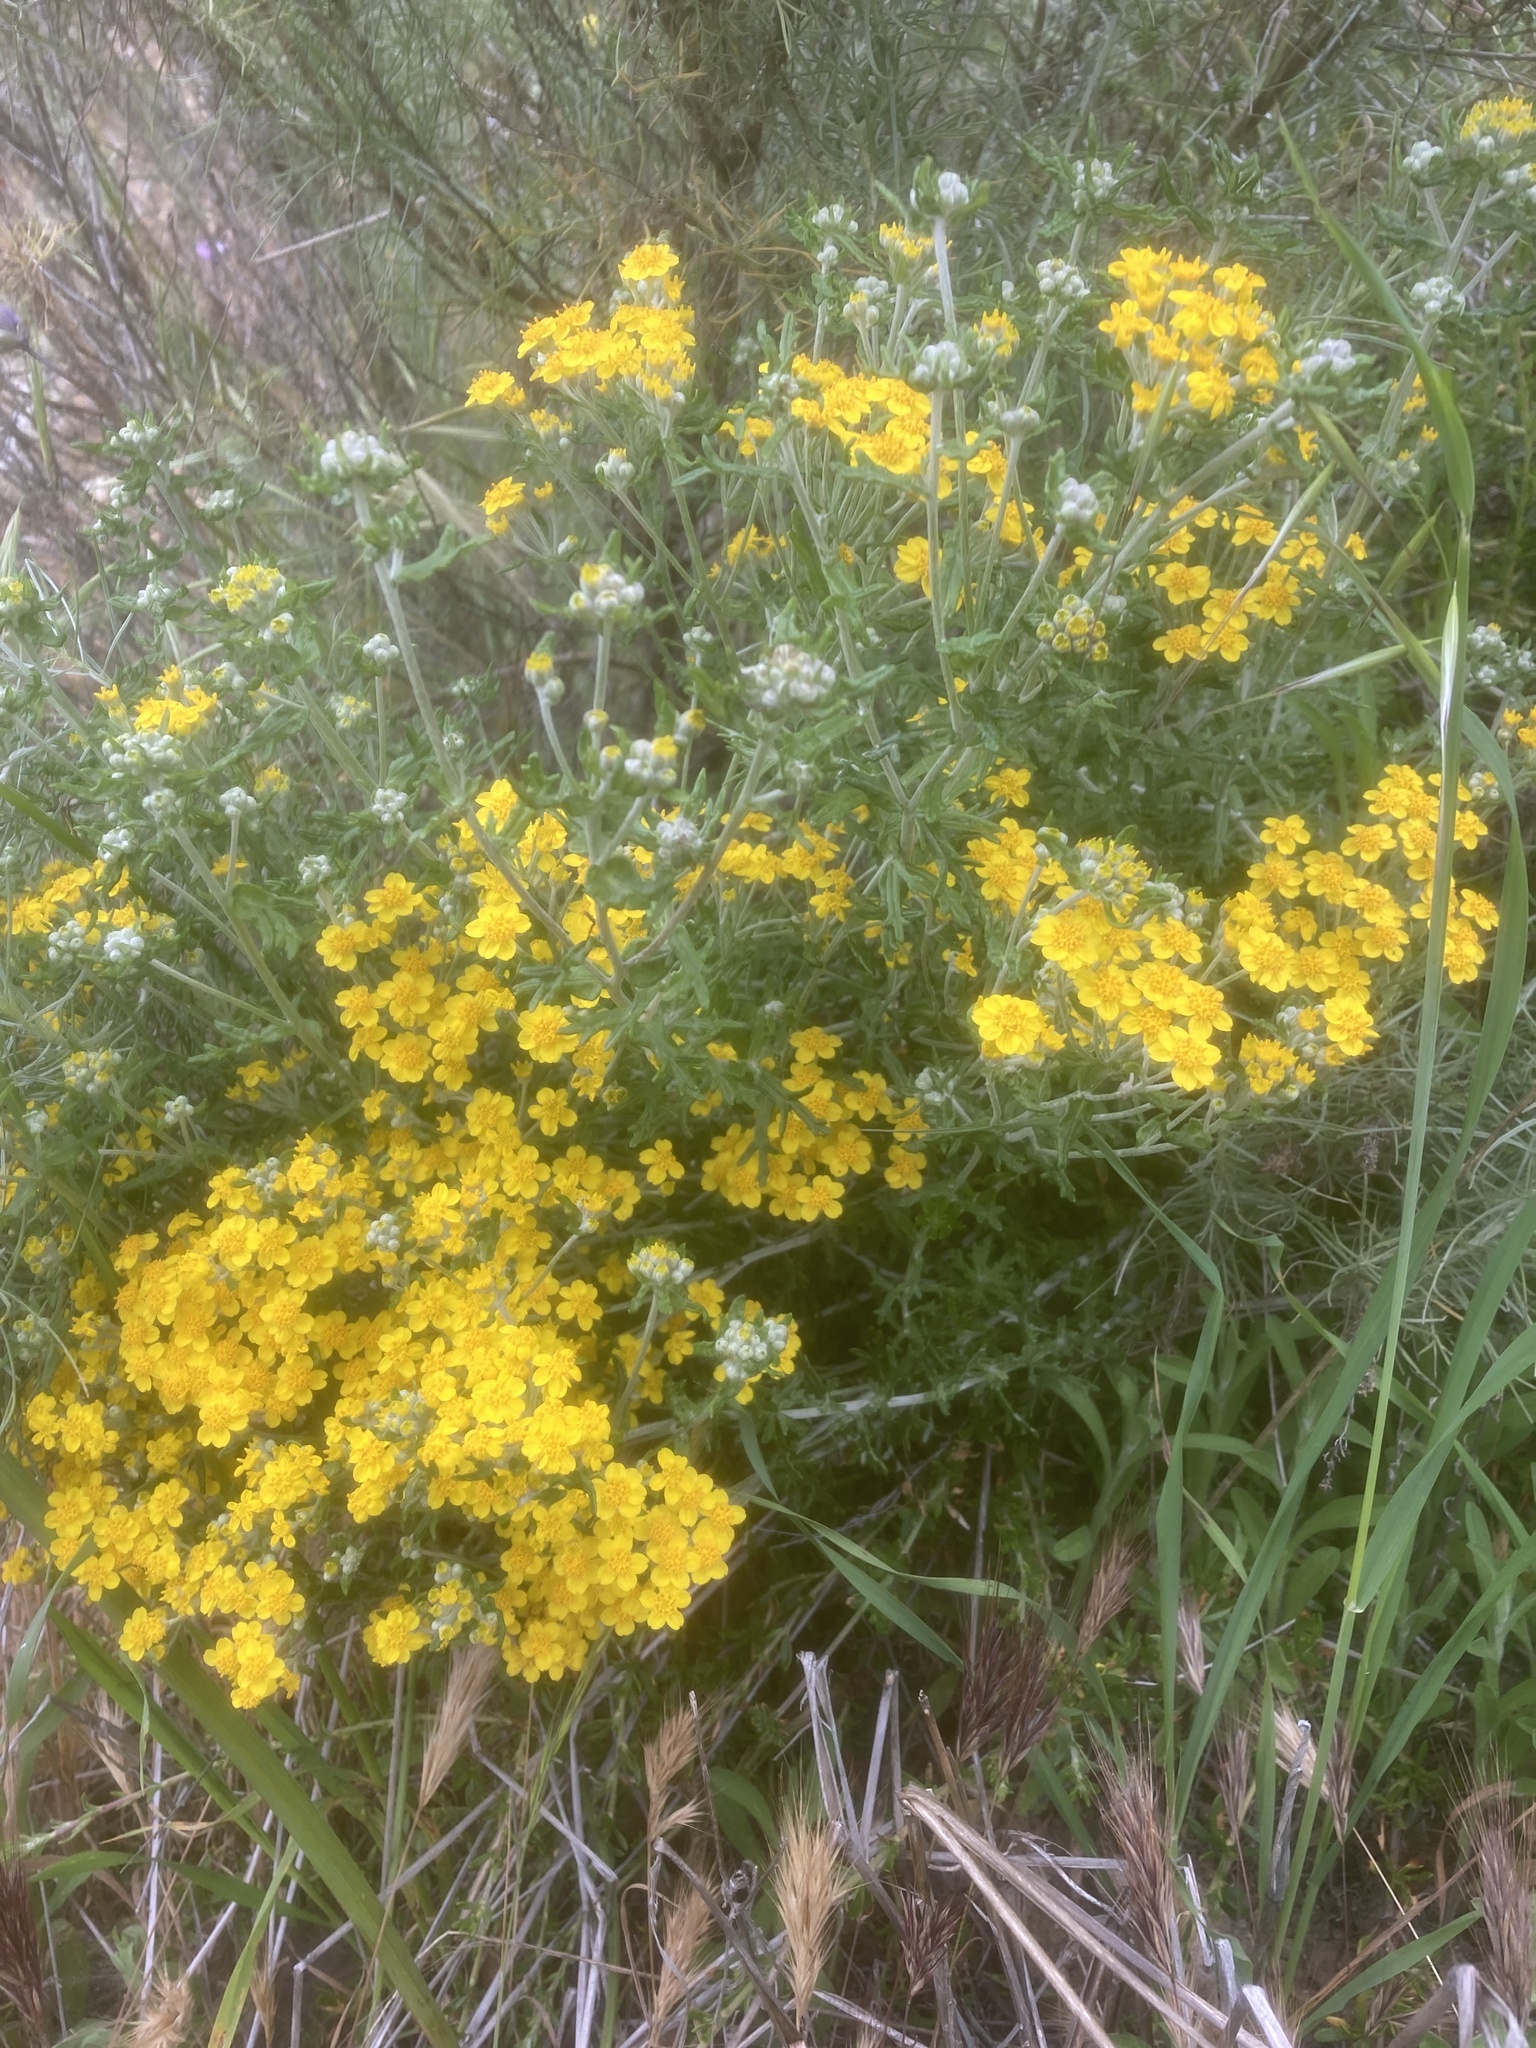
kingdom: Plantae
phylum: Tracheophyta
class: Magnoliopsida
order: Asterales
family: Asteraceae
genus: Eriophyllum
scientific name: Eriophyllum confertiflorum
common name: Golden-yarrow
